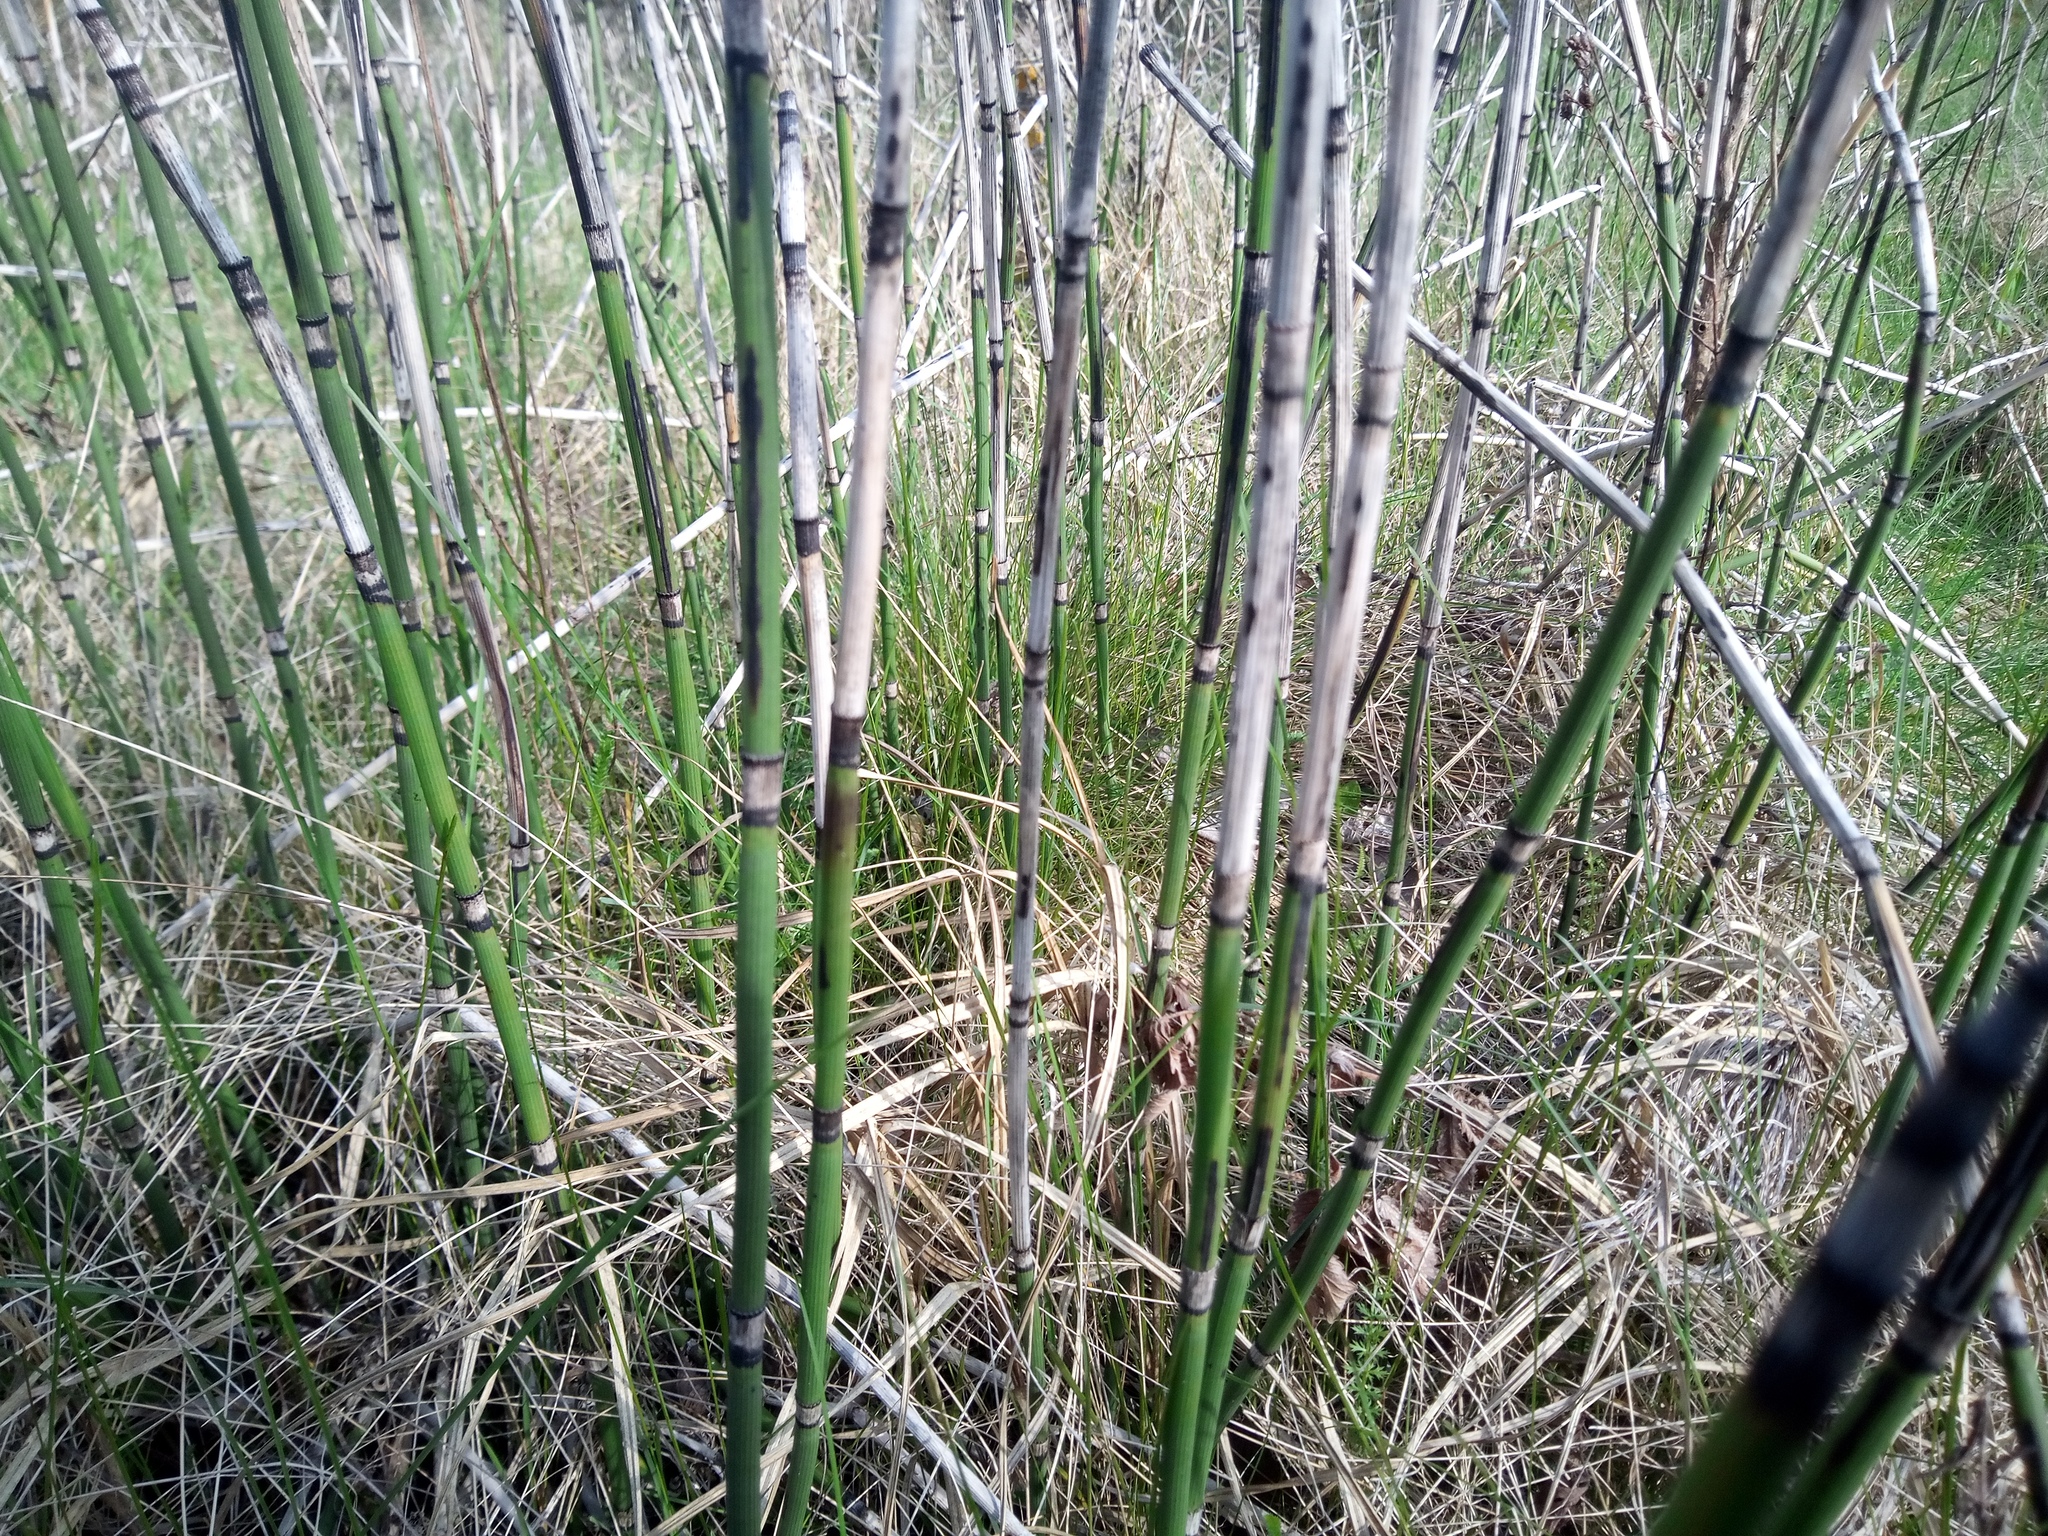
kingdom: Plantae
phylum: Tracheophyta
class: Polypodiopsida
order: Equisetales
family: Equisetaceae
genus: Equisetum
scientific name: Equisetum hyemale
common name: Rough horsetail
